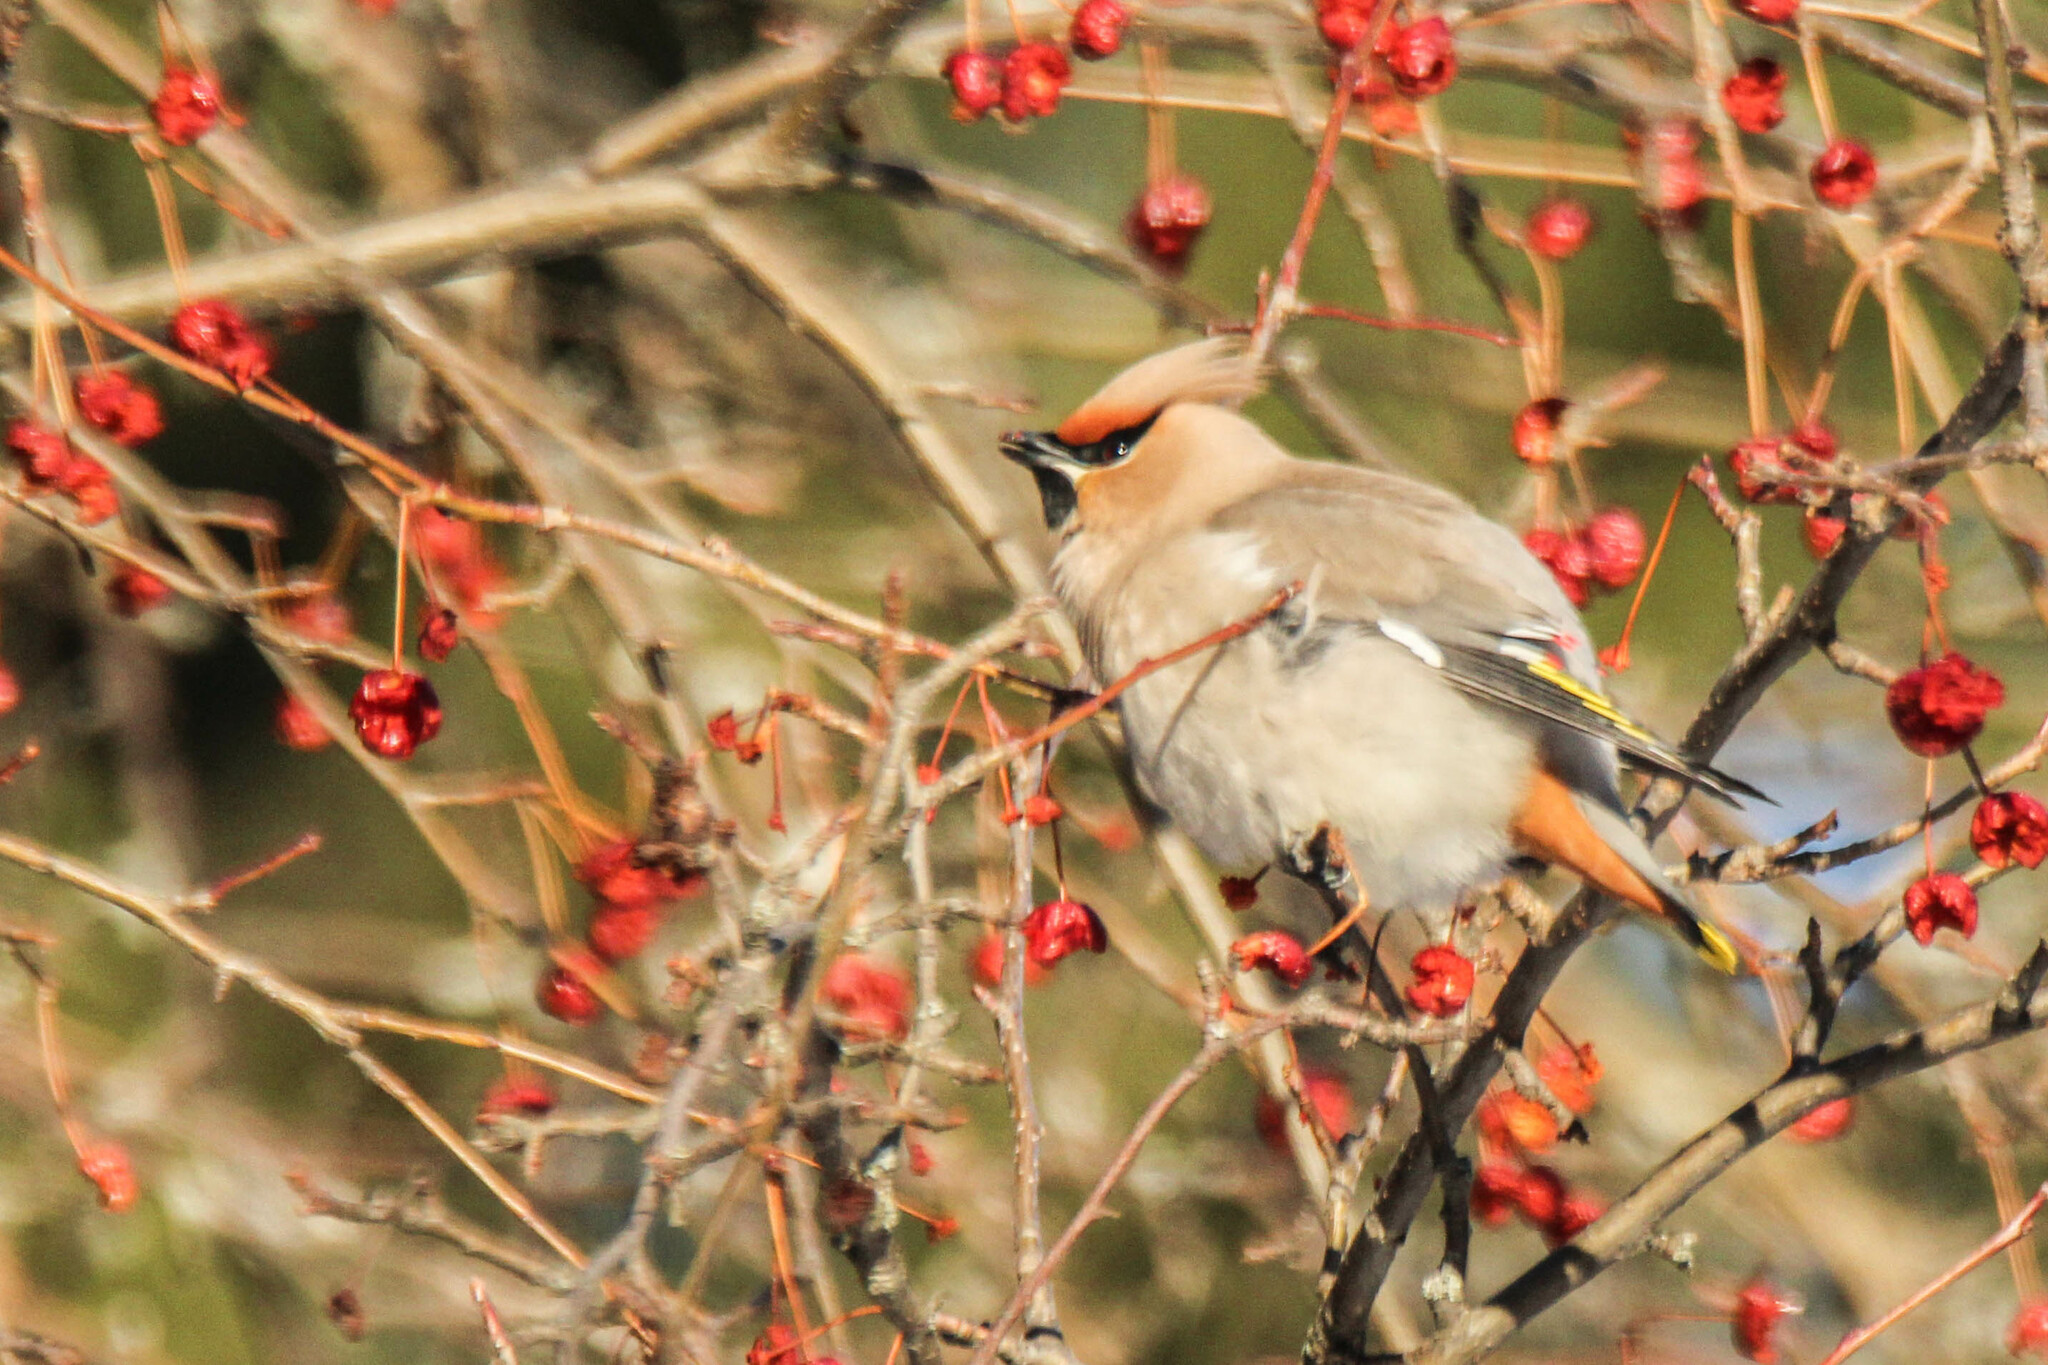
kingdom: Animalia
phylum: Chordata
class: Aves
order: Passeriformes
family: Bombycillidae
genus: Bombycilla
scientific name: Bombycilla garrulus
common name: Bohemian waxwing
